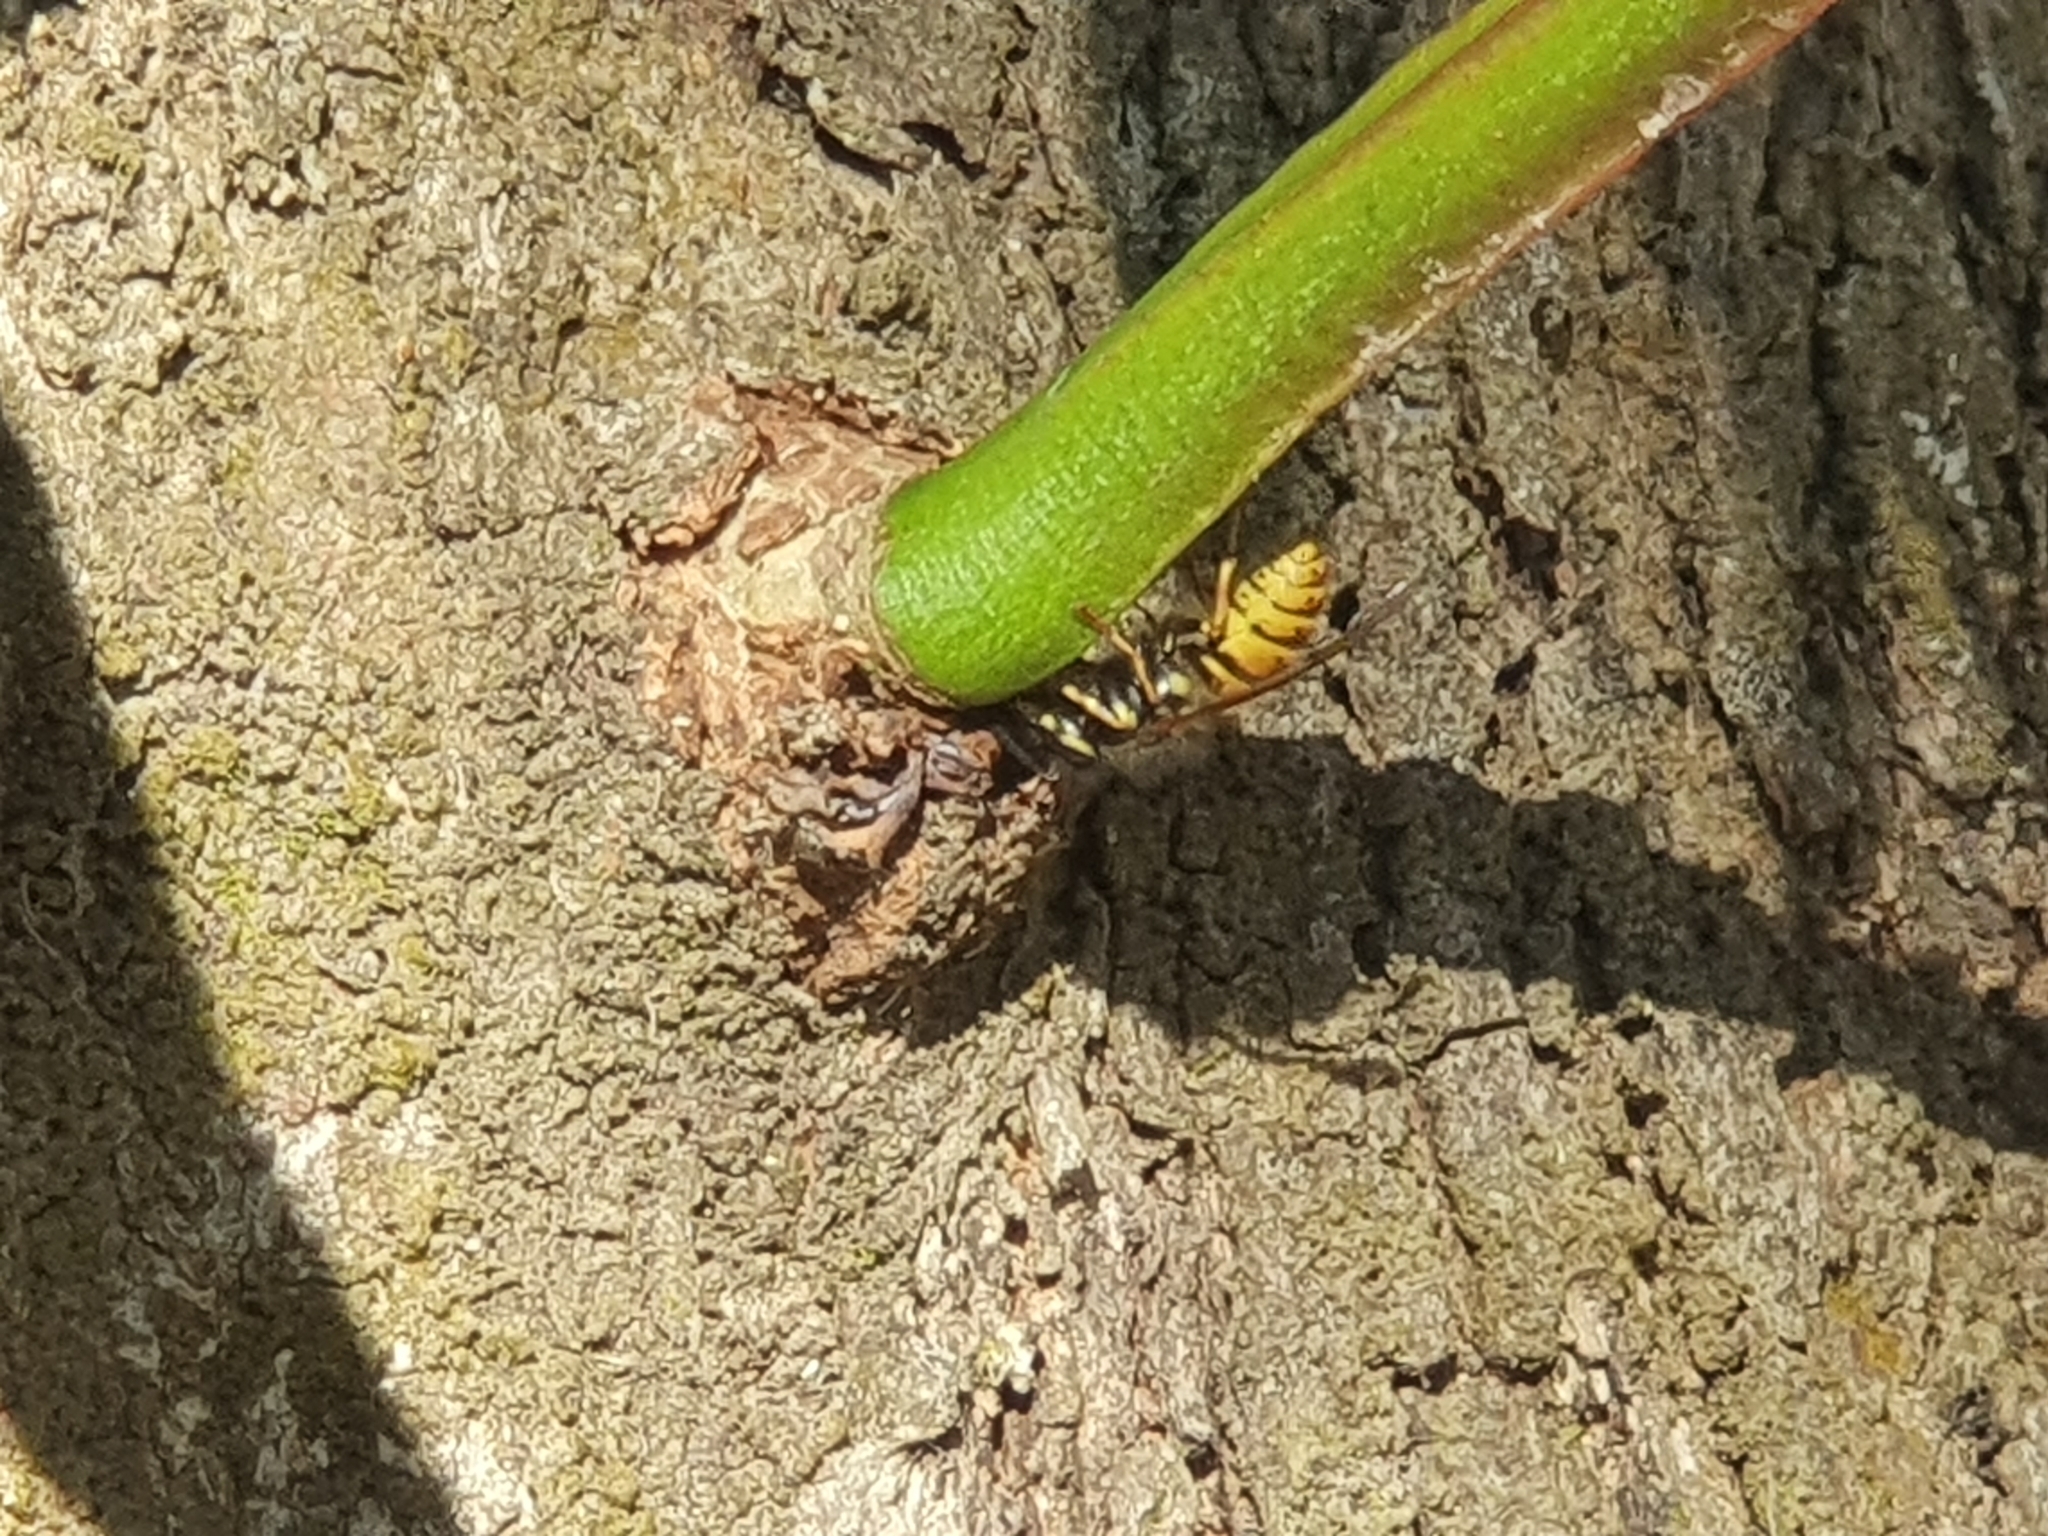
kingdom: Animalia
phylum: Arthropoda
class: Insecta
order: Hymenoptera
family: Vespidae
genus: Vespula
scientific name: Vespula vulgaris
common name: Common wasp
